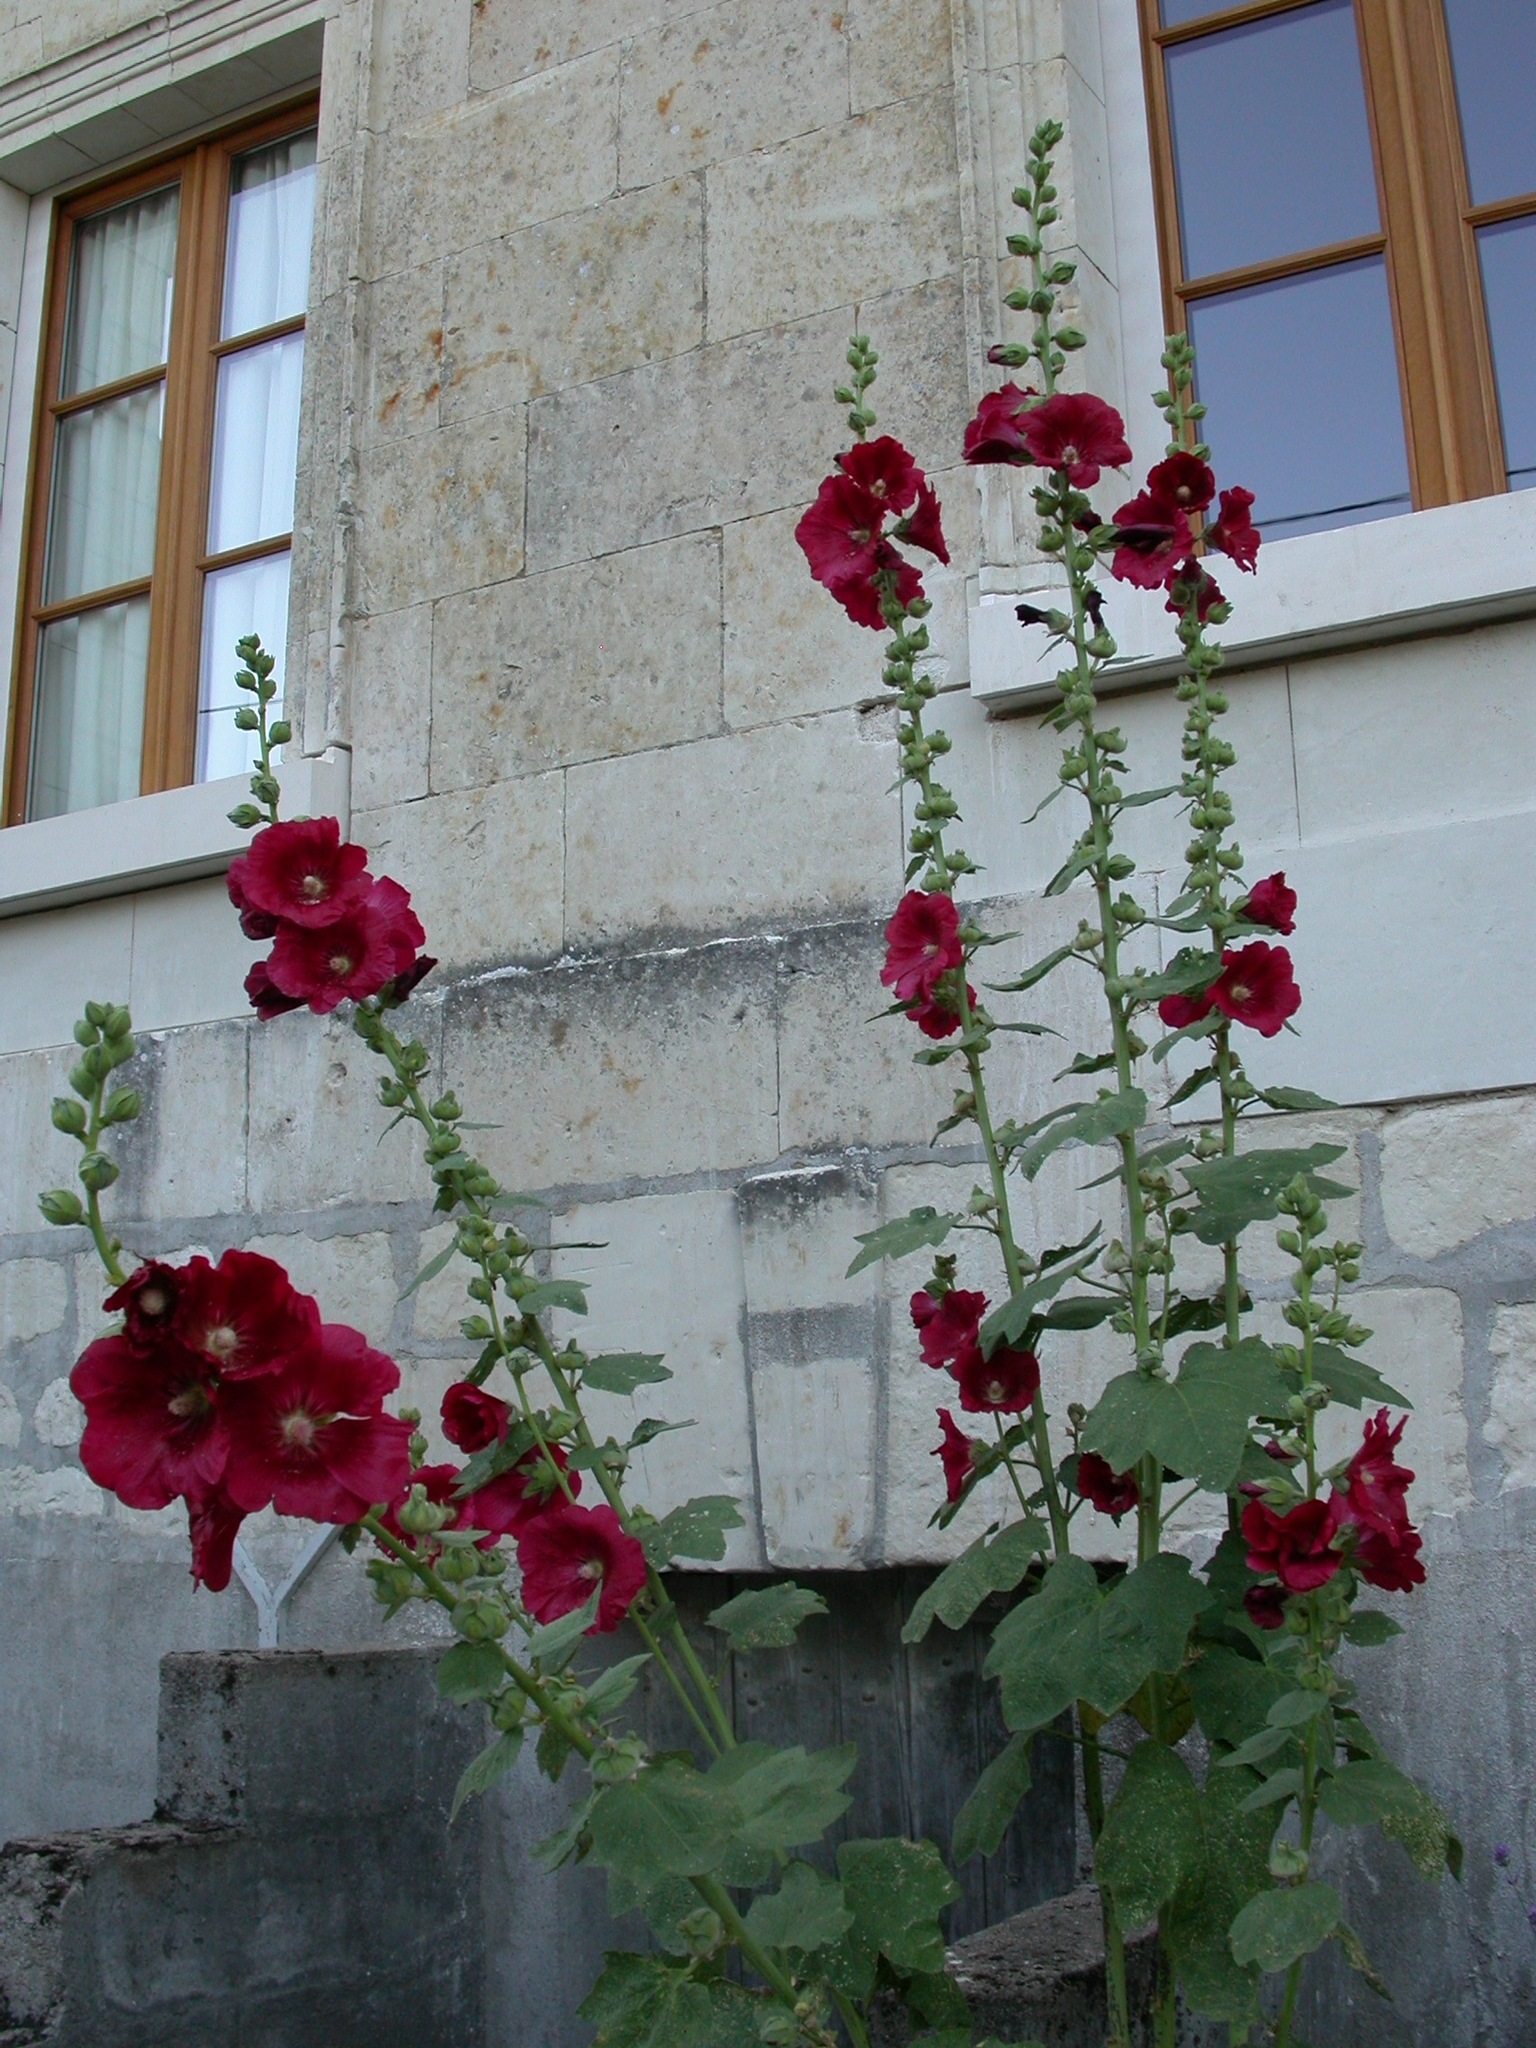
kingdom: Plantae
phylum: Tracheophyta
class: Magnoliopsida
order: Malvales
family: Malvaceae
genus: Alcea
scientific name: Alcea rosea
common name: Hollyhock
